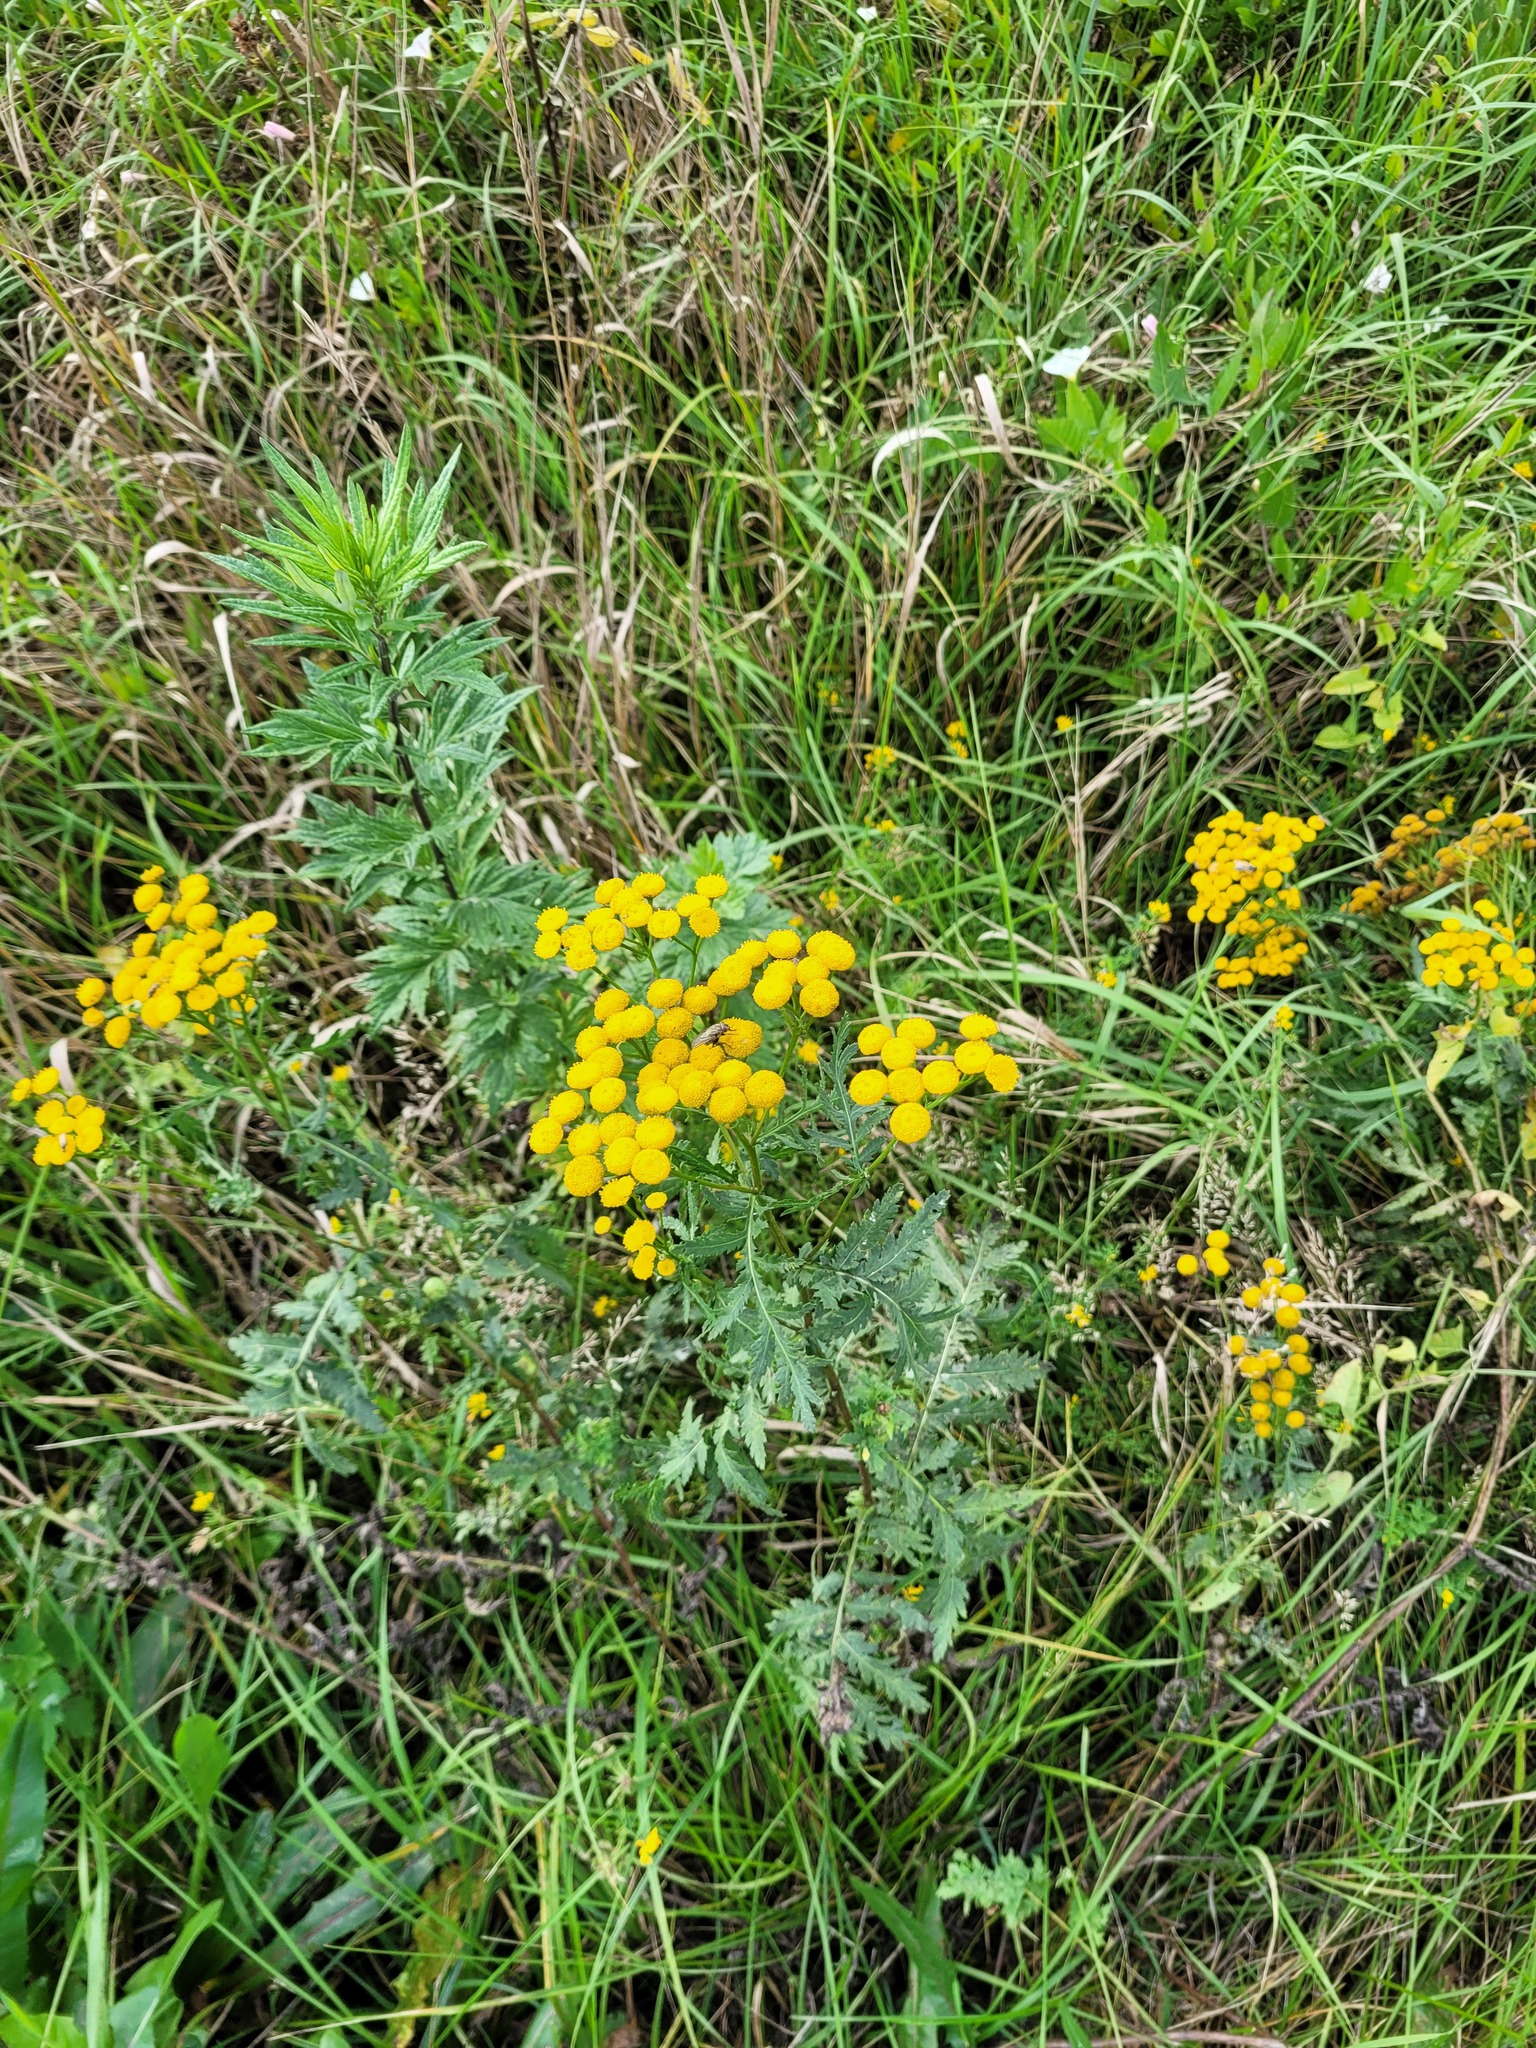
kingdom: Plantae
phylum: Tracheophyta
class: Magnoliopsida
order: Asterales
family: Asteraceae
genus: Tanacetum
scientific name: Tanacetum vulgare
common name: Common tansy
